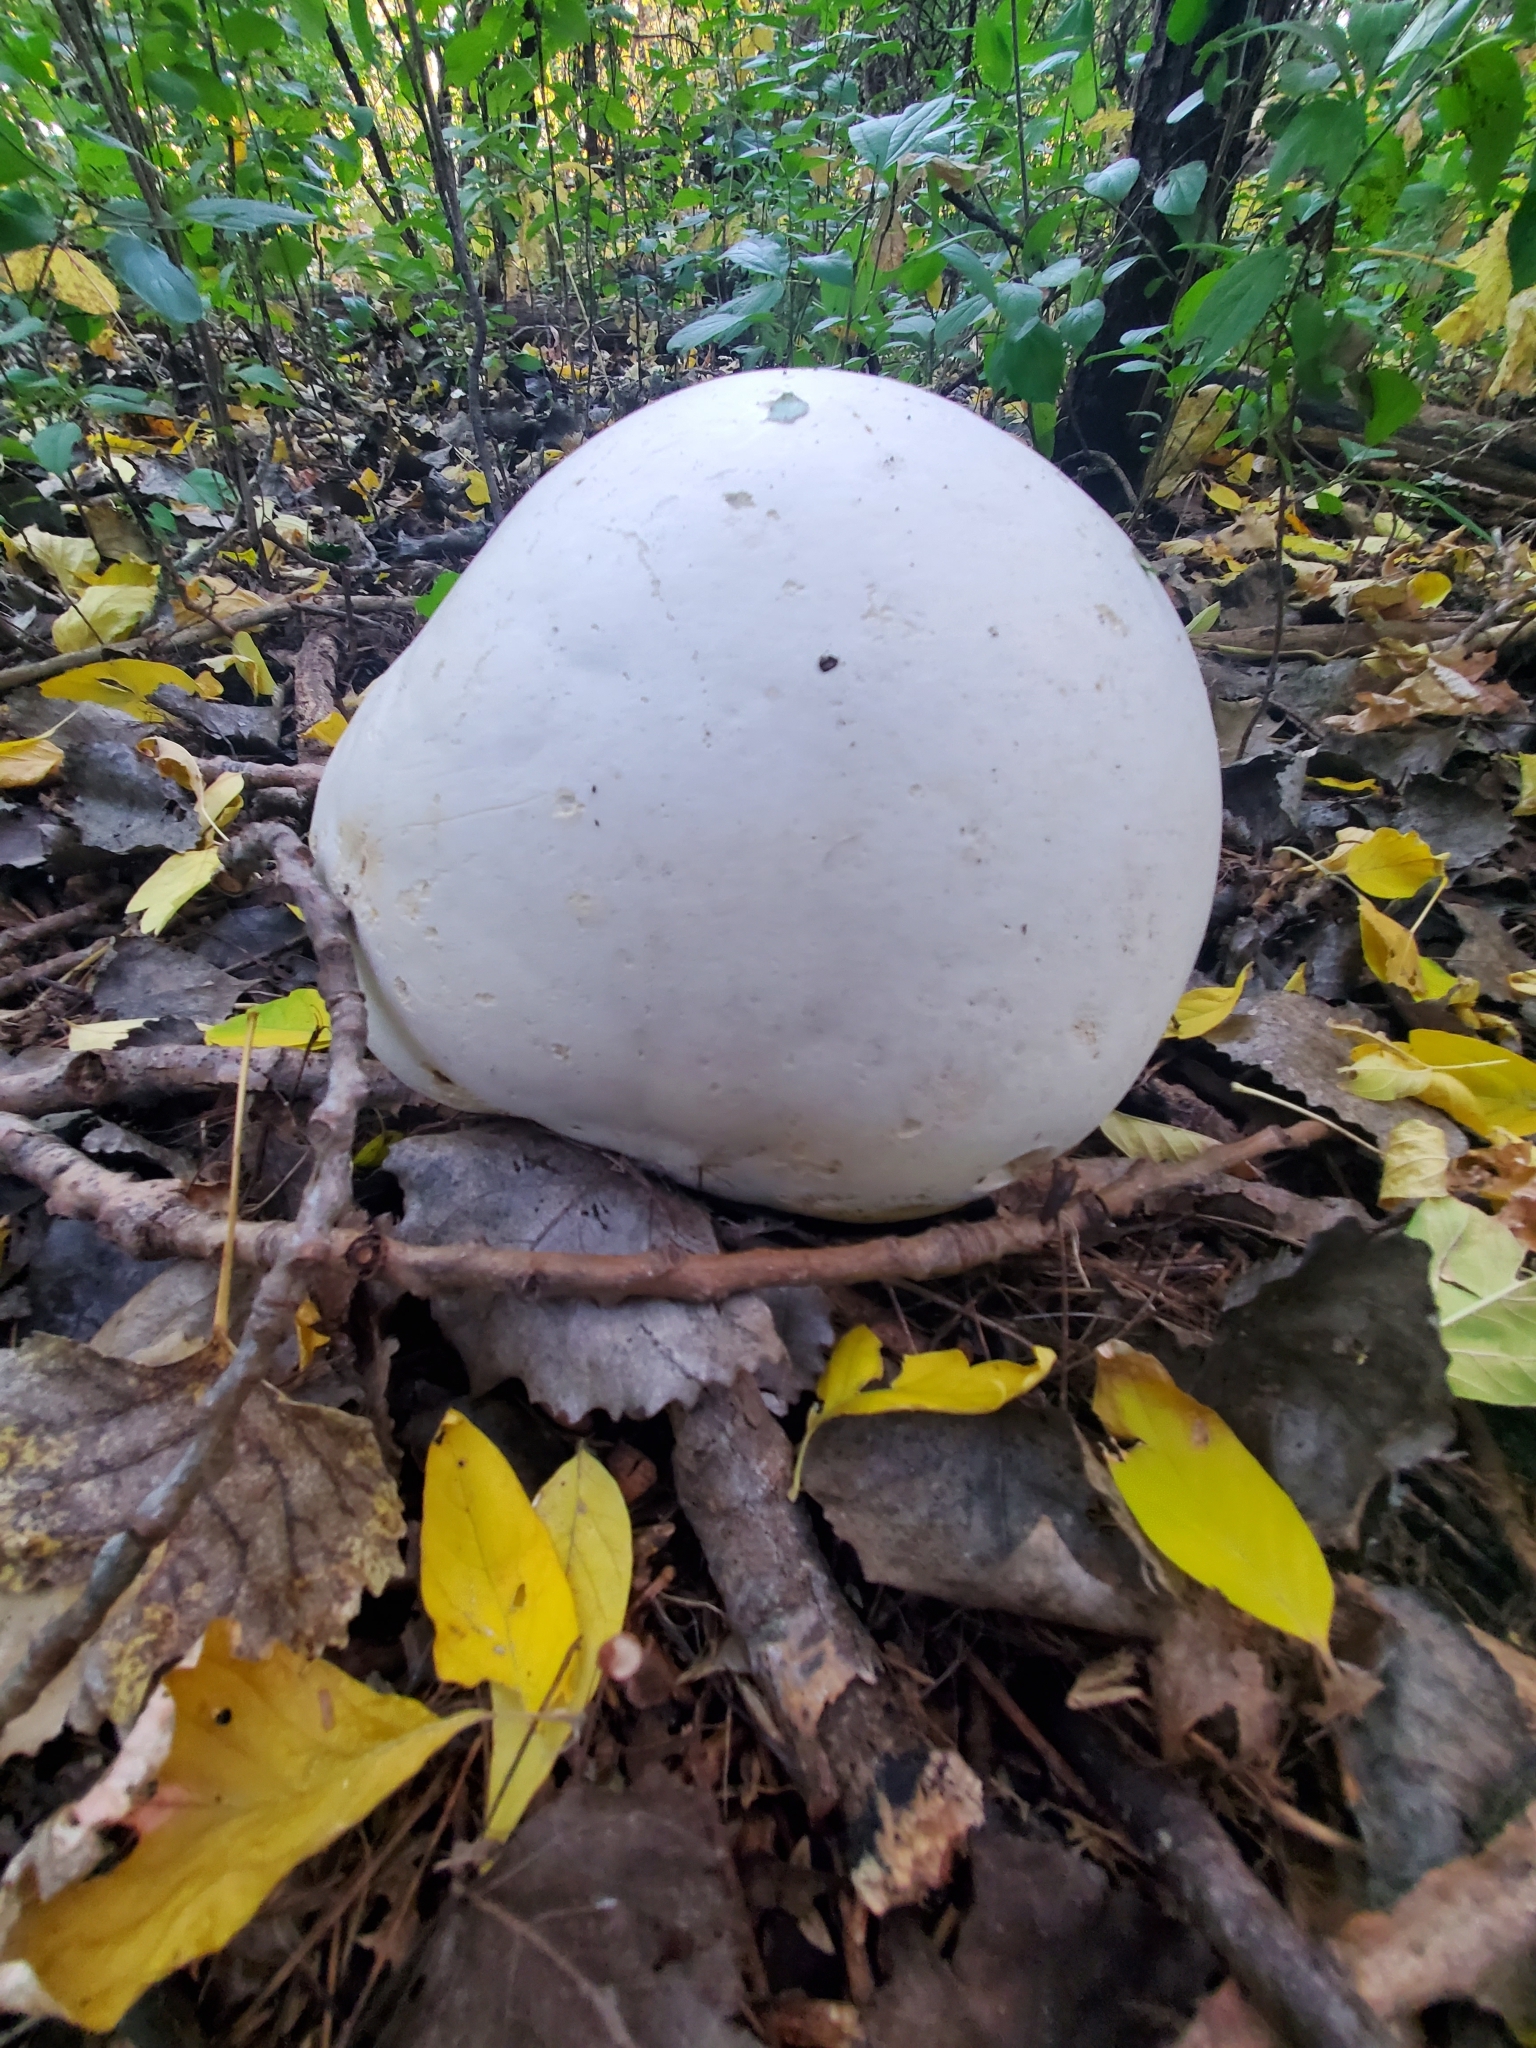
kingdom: Fungi
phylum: Basidiomycota
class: Agaricomycetes
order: Agaricales
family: Lycoperdaceae
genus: Calvatia
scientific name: Calvatia gigantea
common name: Giant puffball
